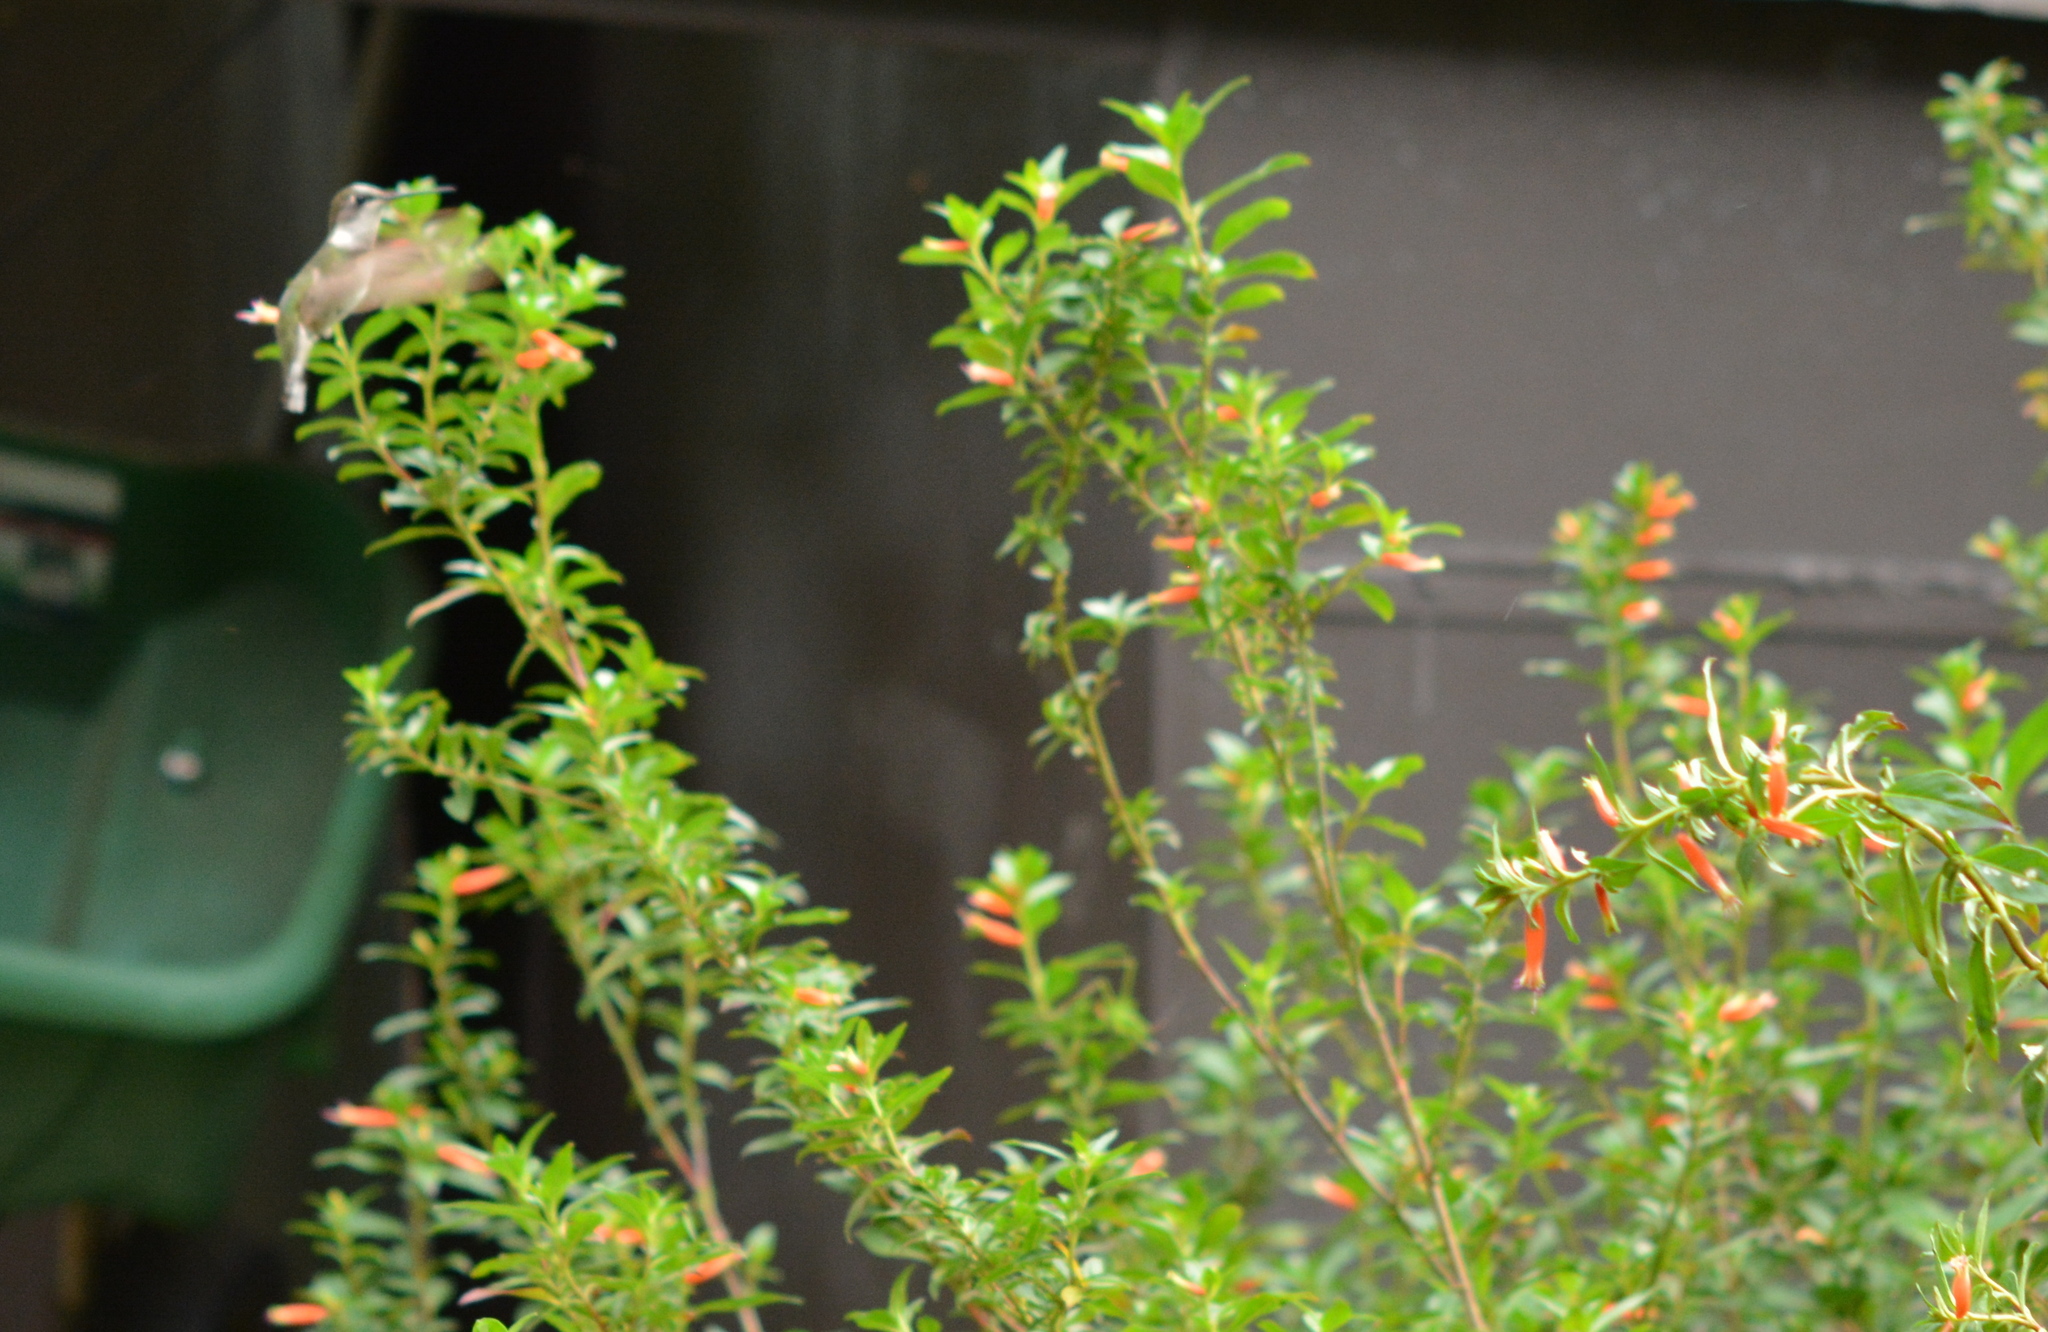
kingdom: Animalia
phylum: Chordata
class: Aves
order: Apodiformes
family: Trochilidae
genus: Archilochus
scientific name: Archilochus colubris
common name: Ruby-throated hummingbird
